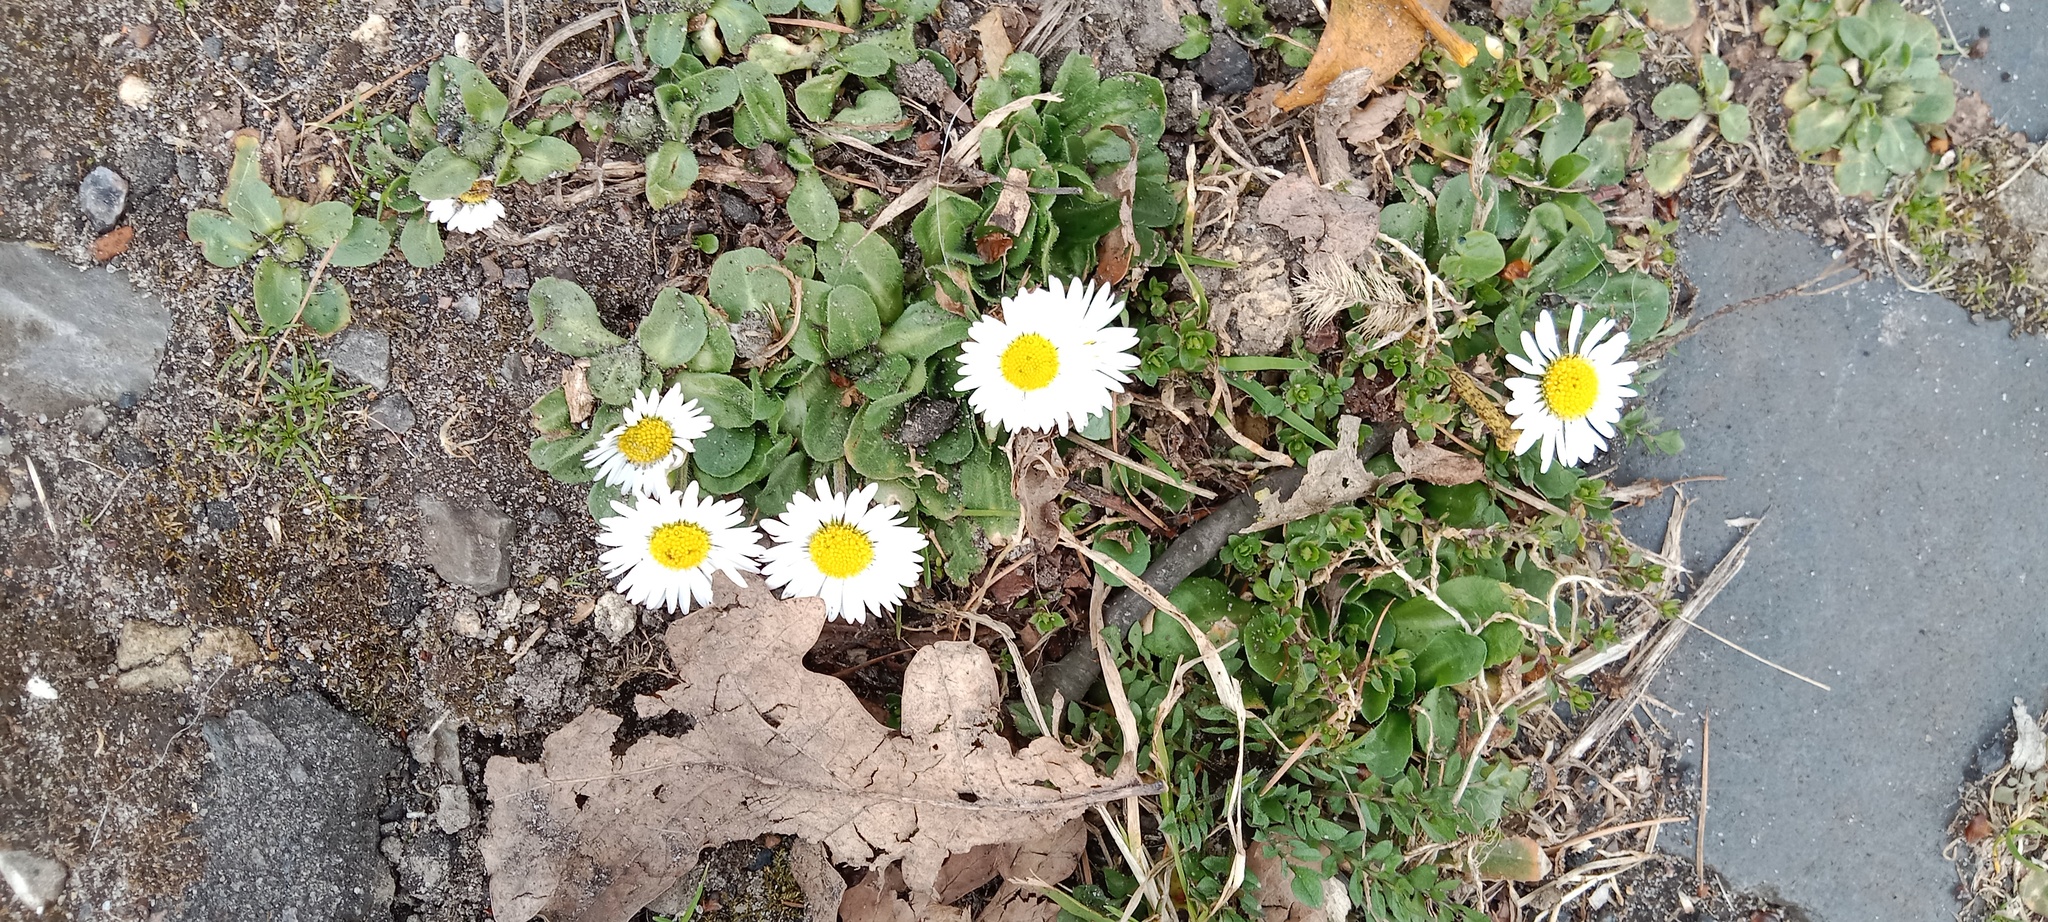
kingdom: Plantae
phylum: Tracheophyta
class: Magnoliopsida
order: Asterales
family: Asteraceae
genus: Bellis
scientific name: Bellis perennis
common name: Lawndaisy
